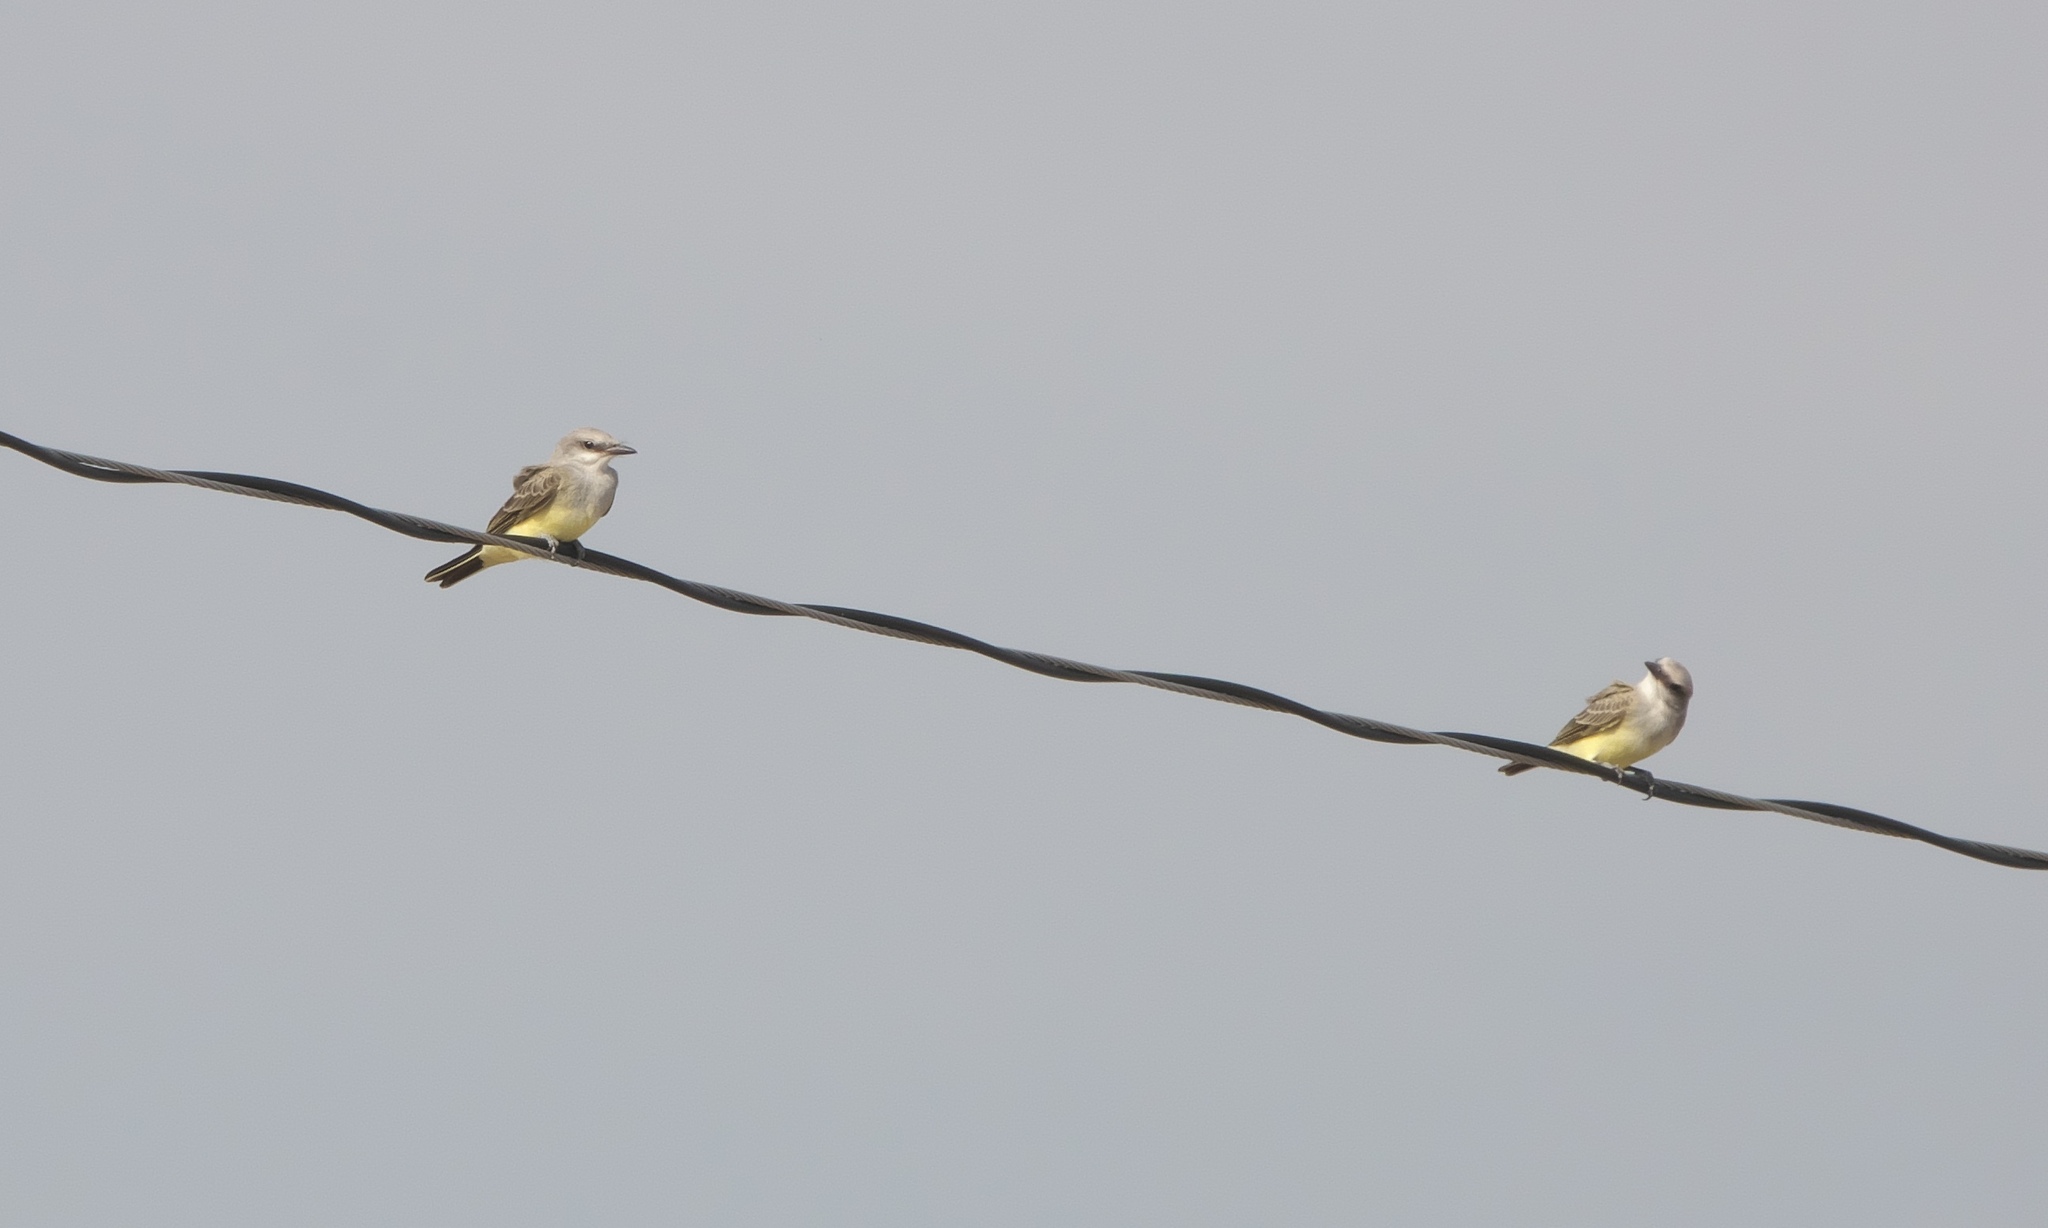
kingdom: Animalia
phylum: Chordata
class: Aves
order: Passeriformes
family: Tyrannidae
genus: Tyrannus
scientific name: Tyrannus verticalis
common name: Western kingbird
